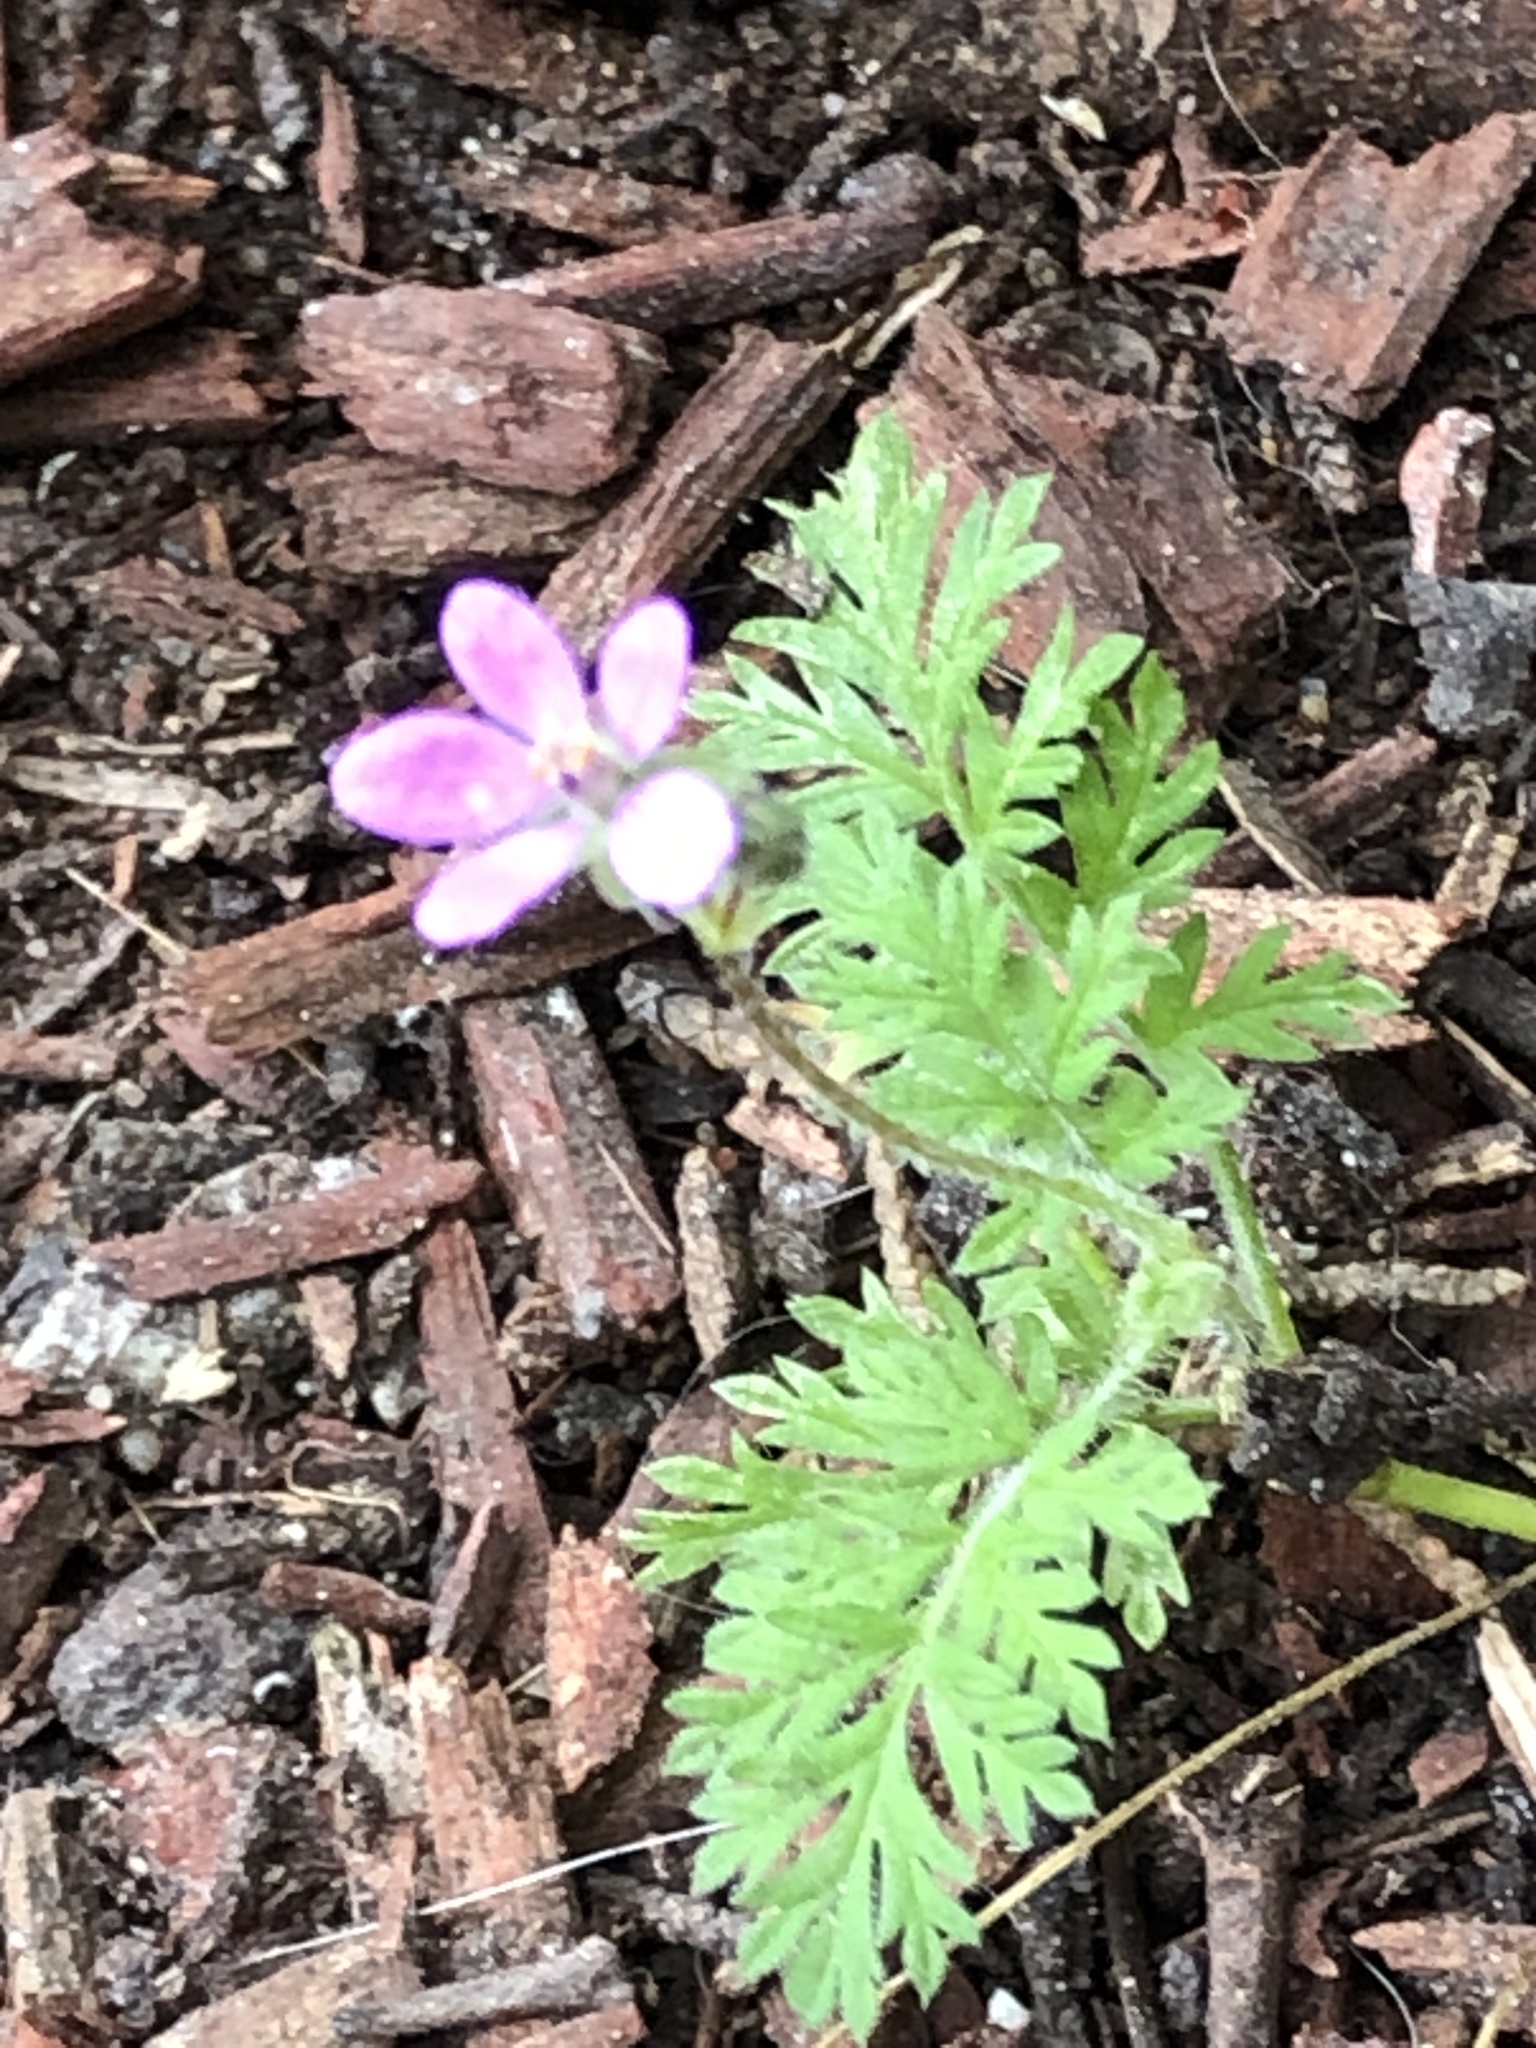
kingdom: Plantae
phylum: Tracheophyta
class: Magnoliopsida
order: Geraniales
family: Geraniaceae
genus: Erodium
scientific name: Erodium cicutarium
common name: Common stork's-bill
